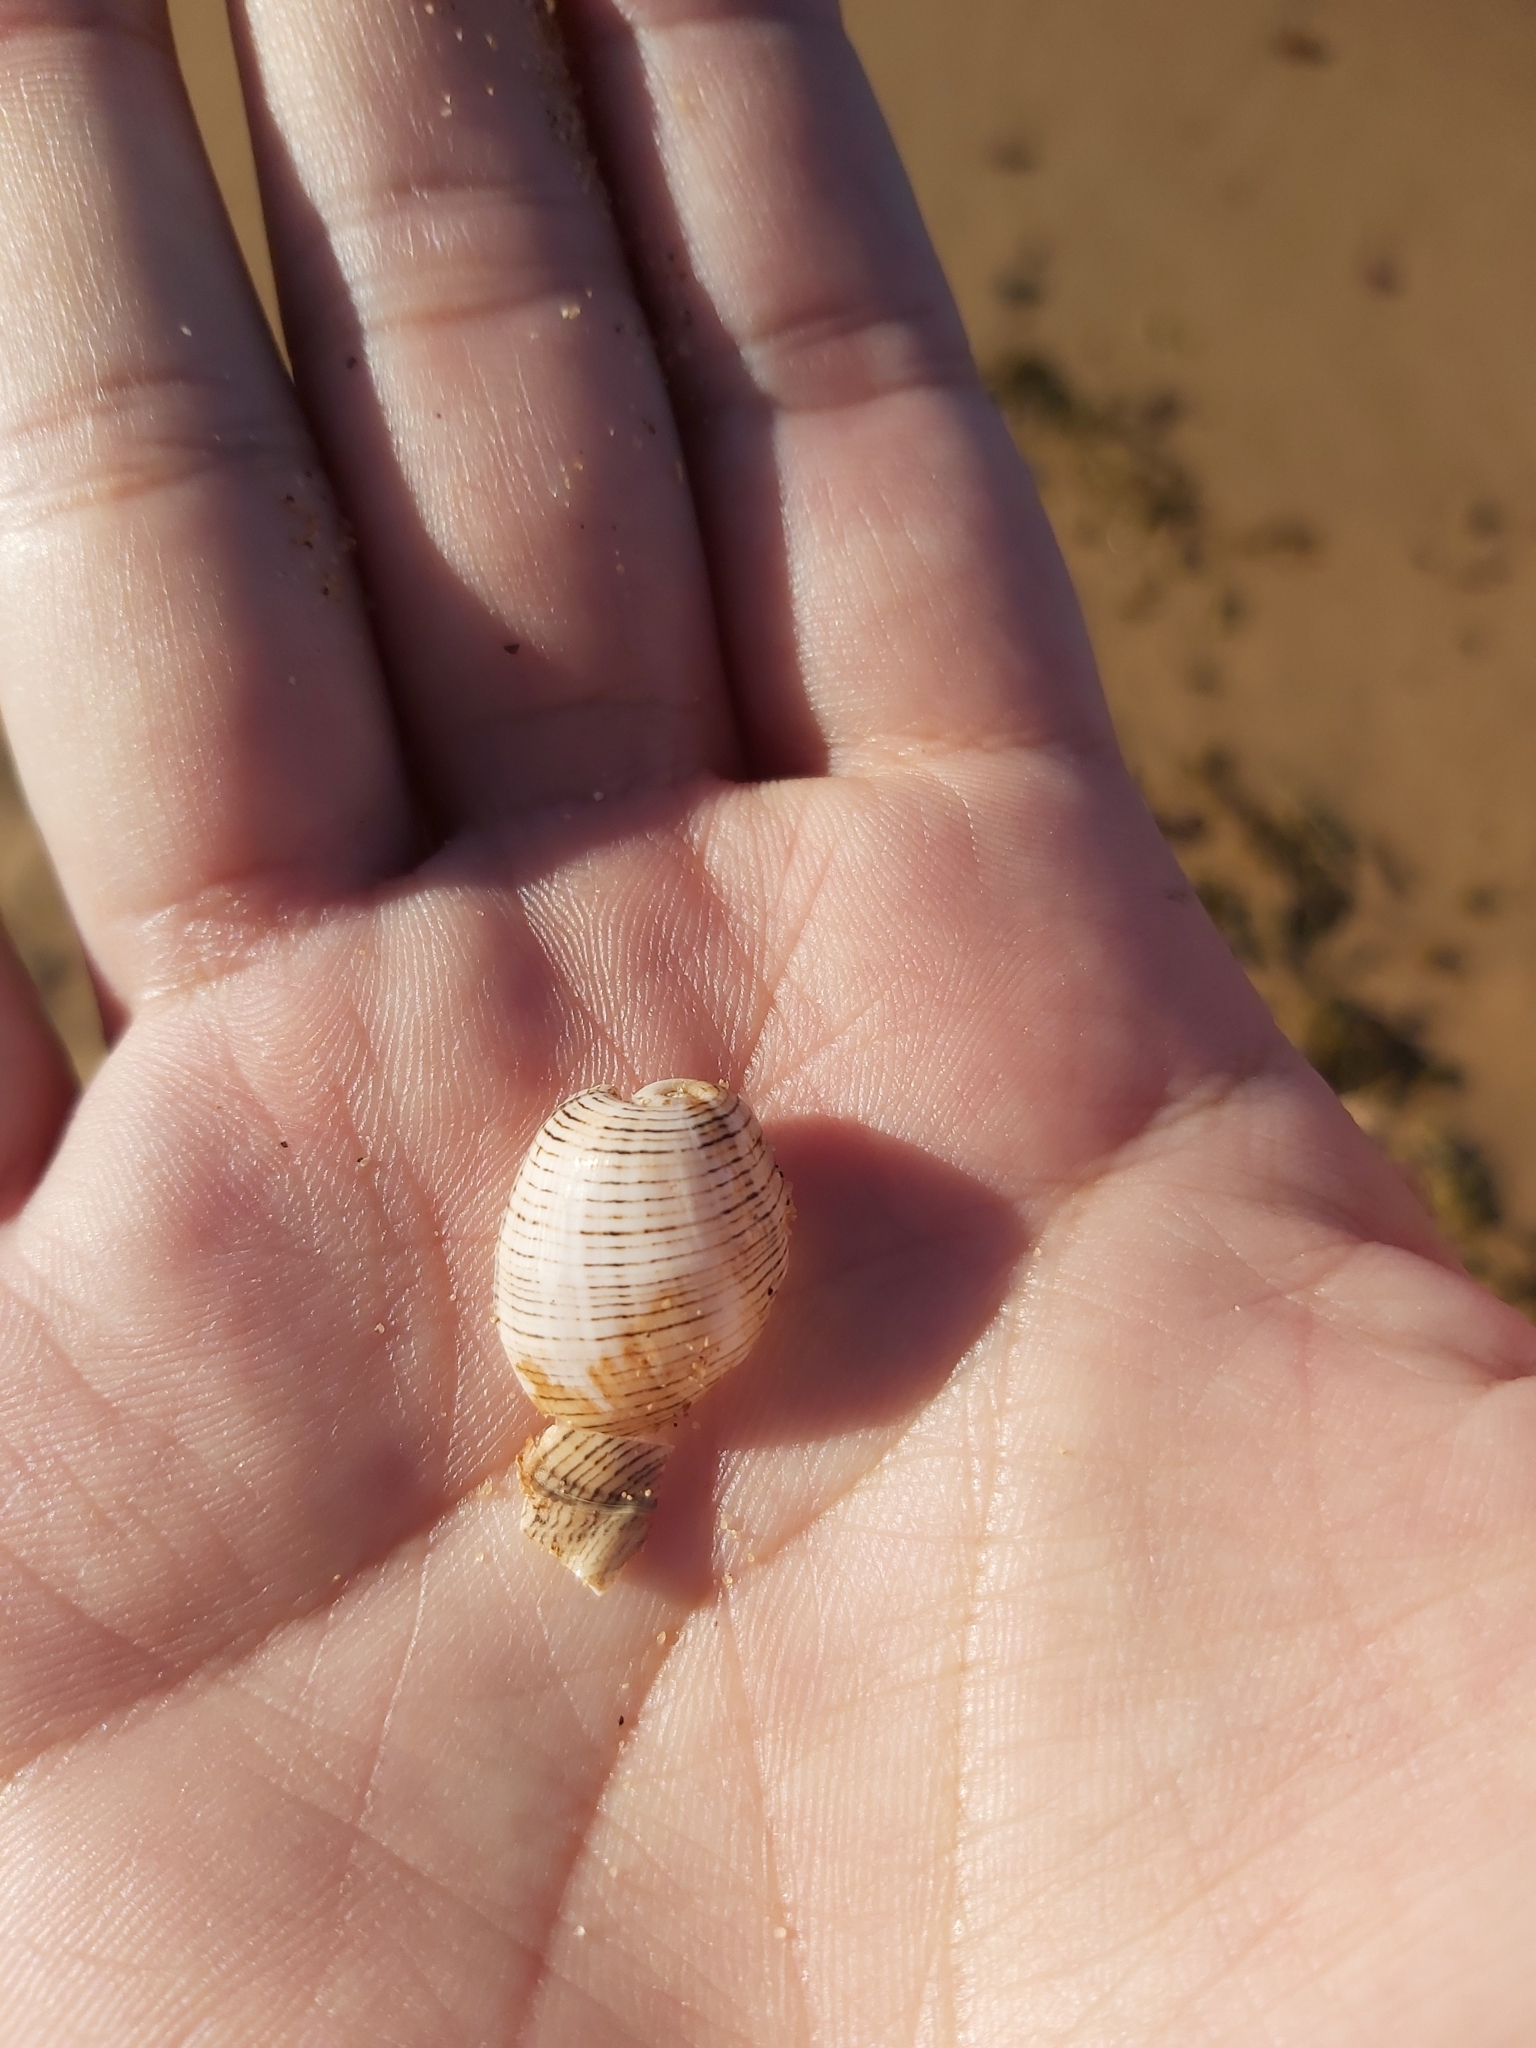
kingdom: Animalia
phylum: Mollusca
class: Gastropoda
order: Cephalaspidea
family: Aplustridae
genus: Hydatina
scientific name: Hydatina physis
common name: Brown-line paperbubble
